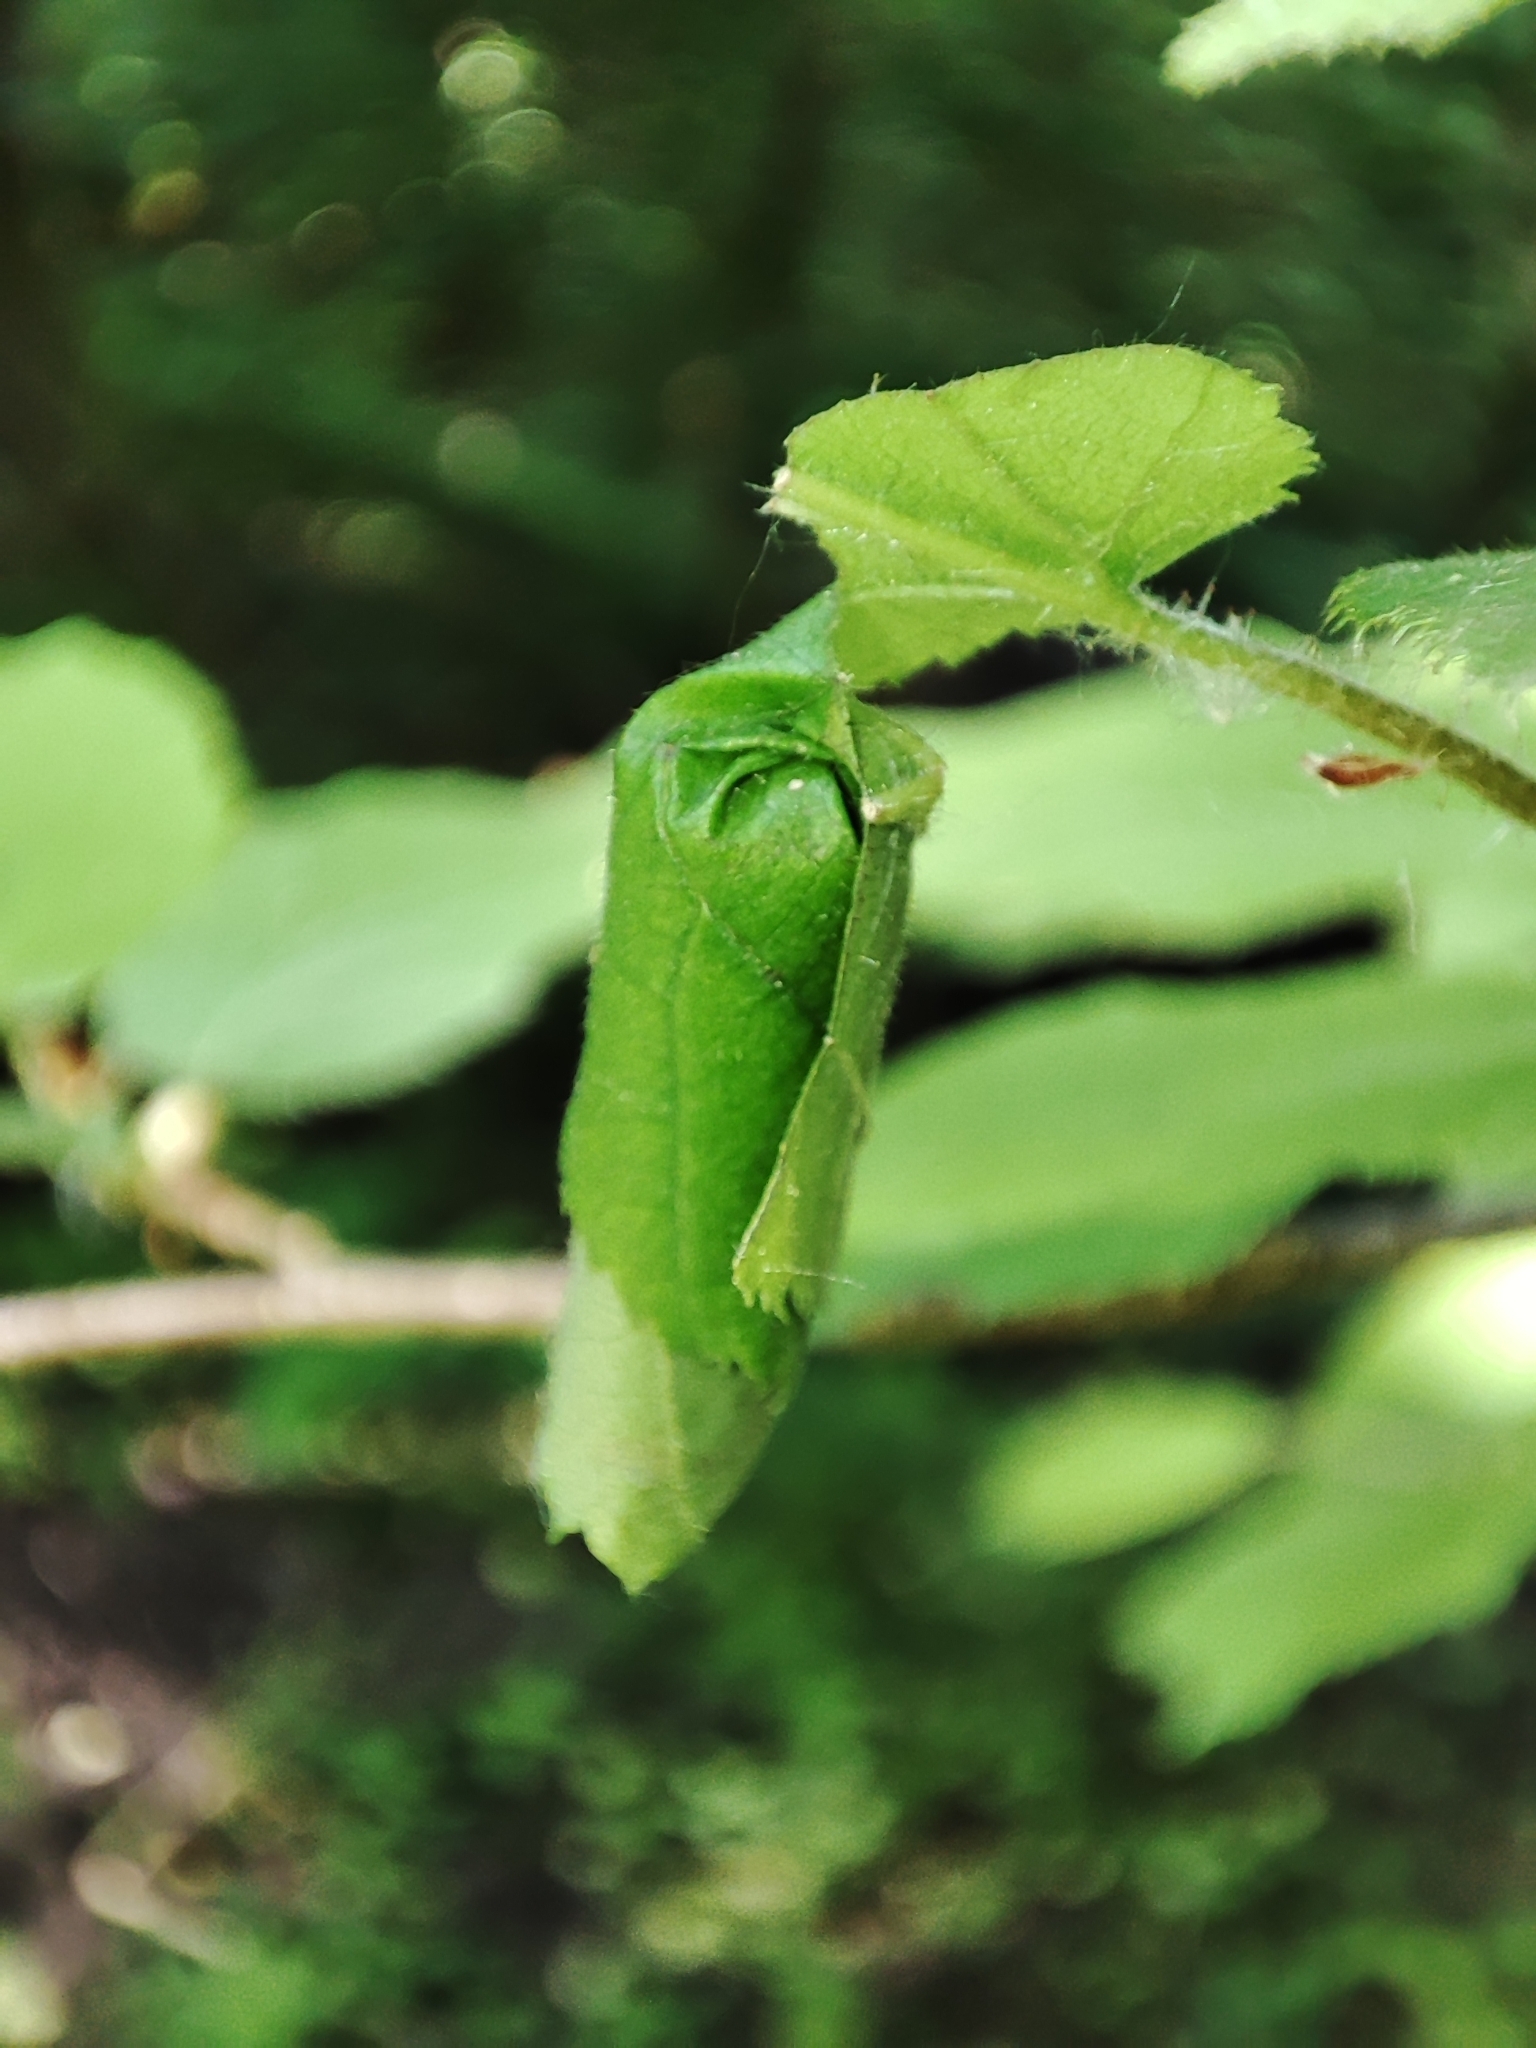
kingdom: Animalia
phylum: Arthropoda
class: Insecta
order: Coleoptera
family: Attelabidae
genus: Apoderus
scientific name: Apoderus coryli
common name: Hazel leaf roller
